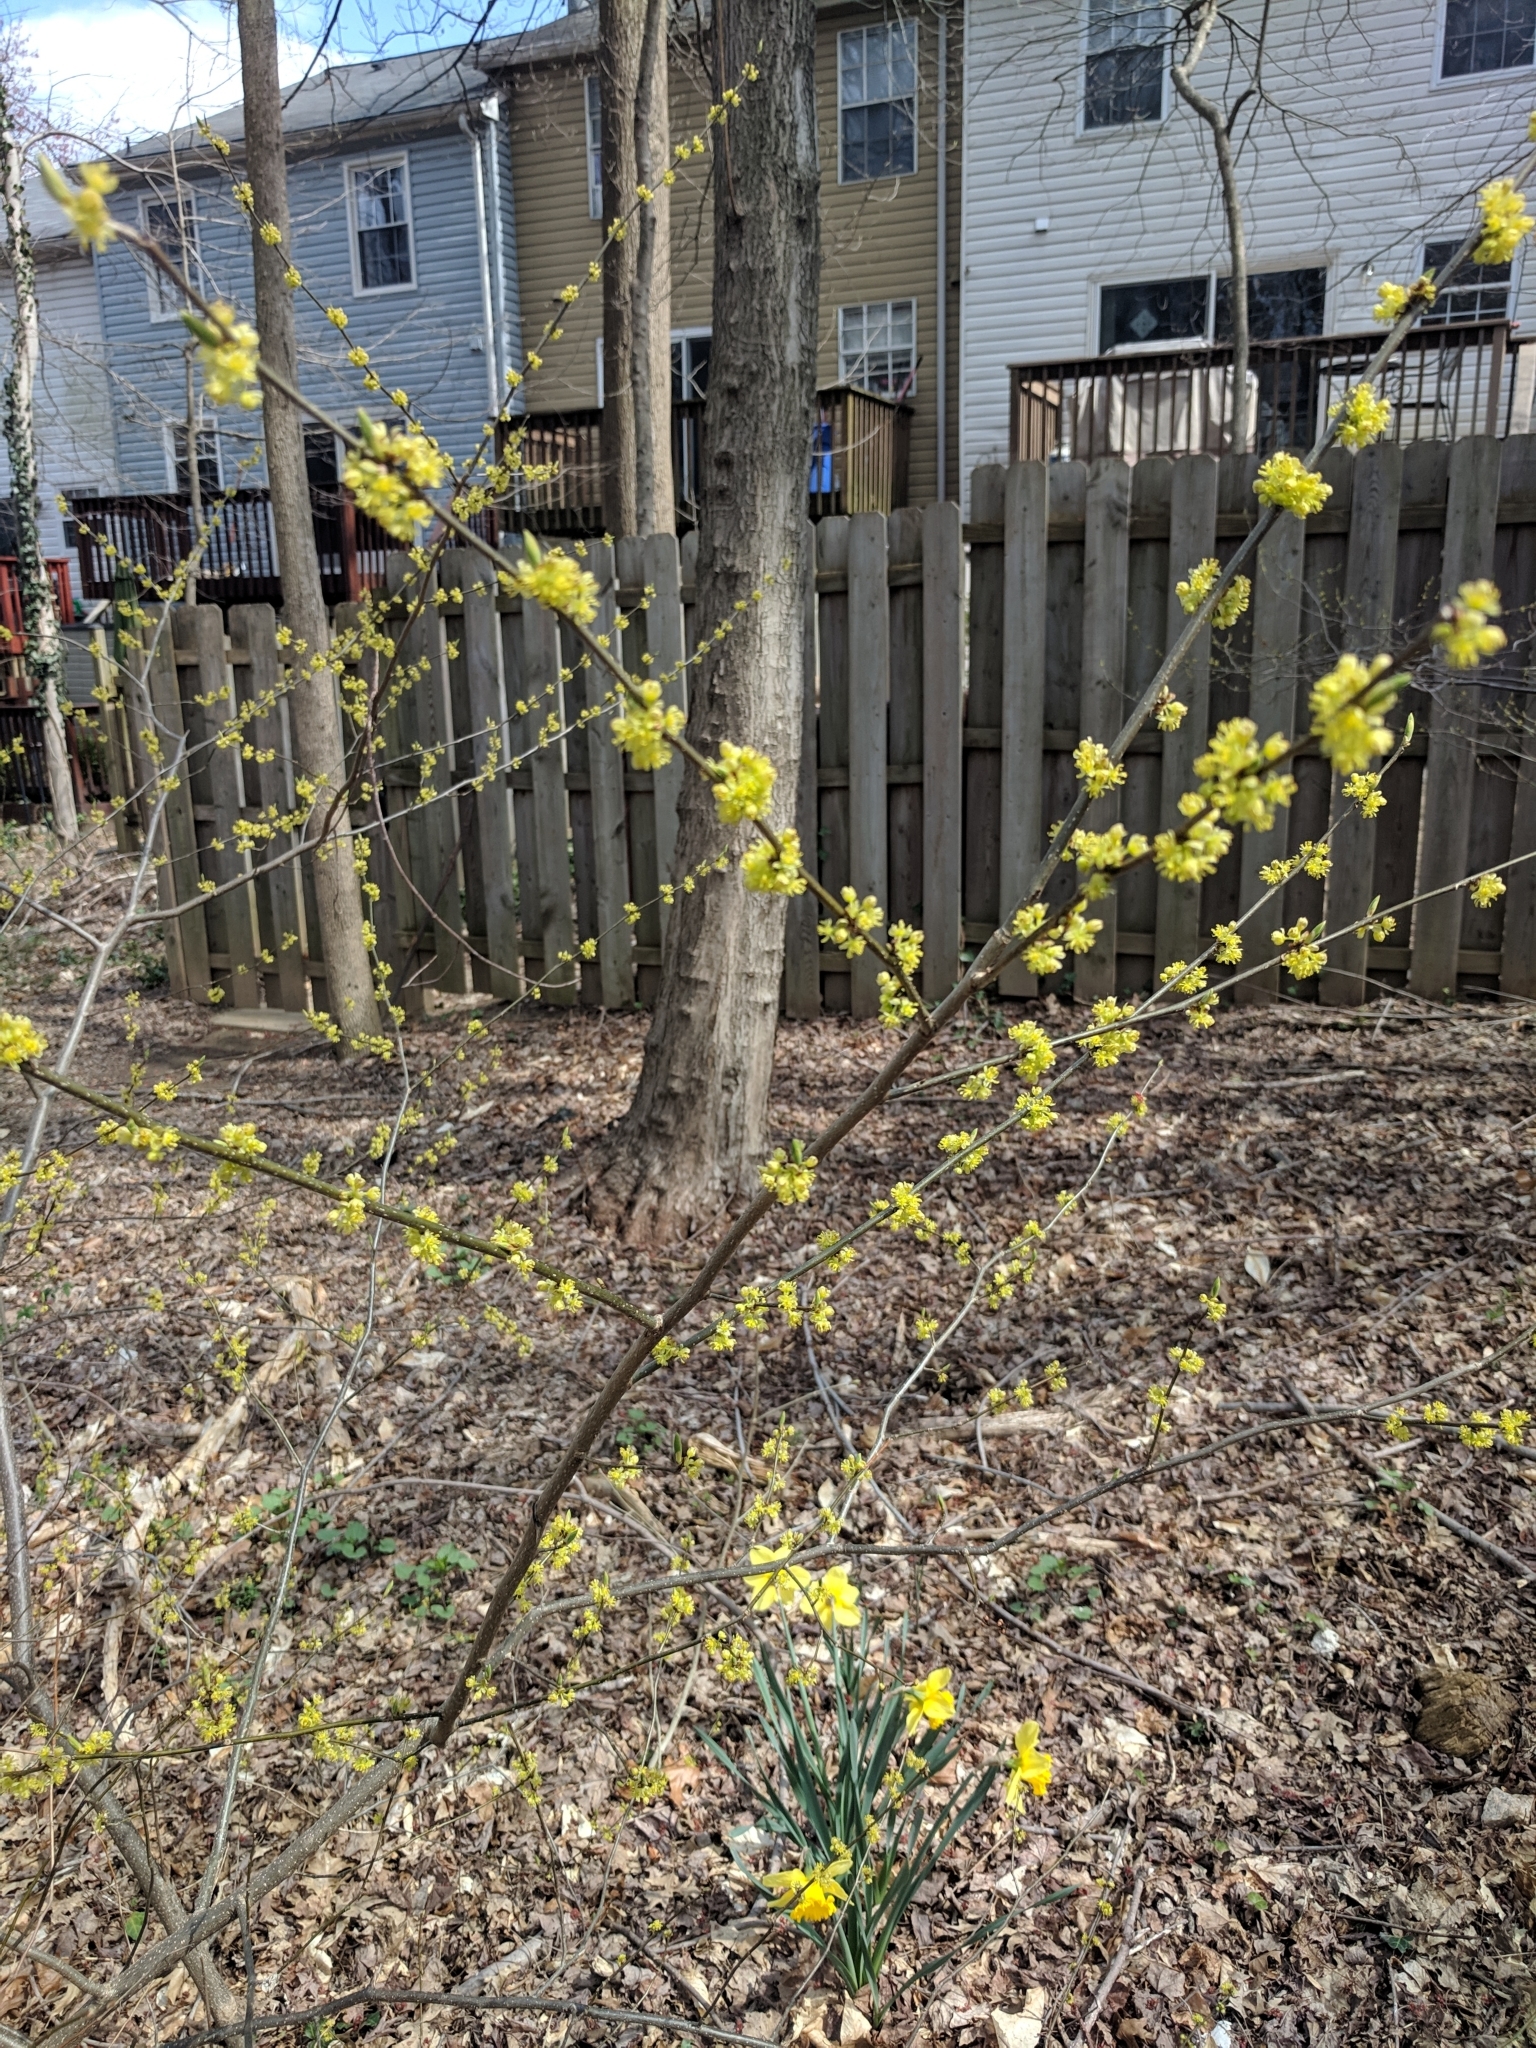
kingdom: Plantae
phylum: Tracheophyta
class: Magnoliopsida
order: Laurales
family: Lauraceae
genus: Lindera
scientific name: Lindera benzoin
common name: Spicebush
